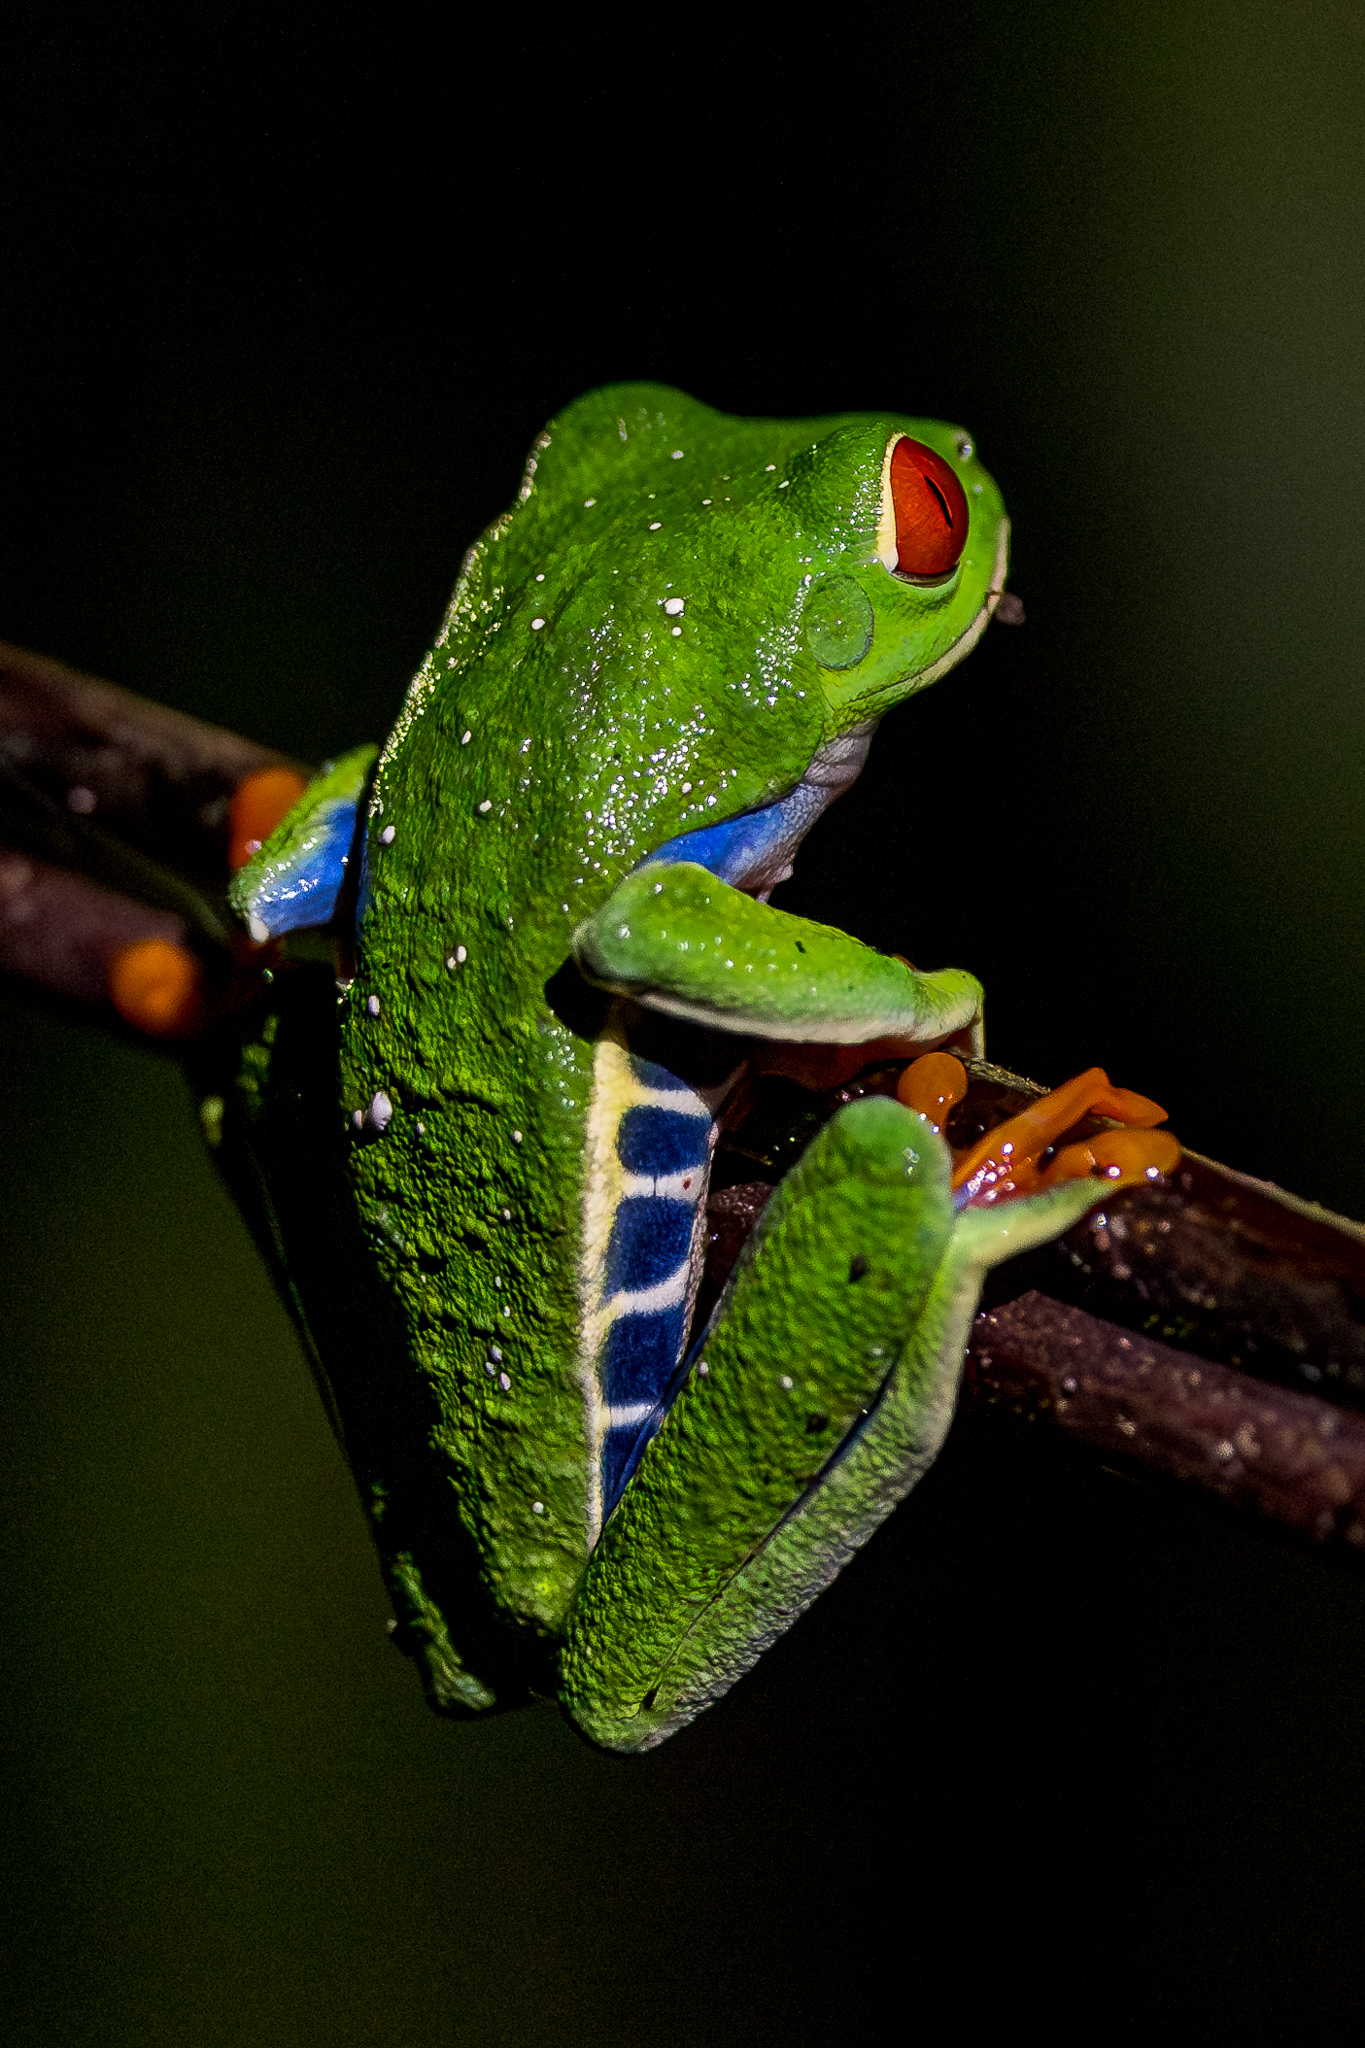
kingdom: Animalia
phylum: Chordata
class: Amphibia
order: Anura
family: Phyllomedusidae
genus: Agalychnis
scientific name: Agalychnis callidryas
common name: Red-eyed treefrog
